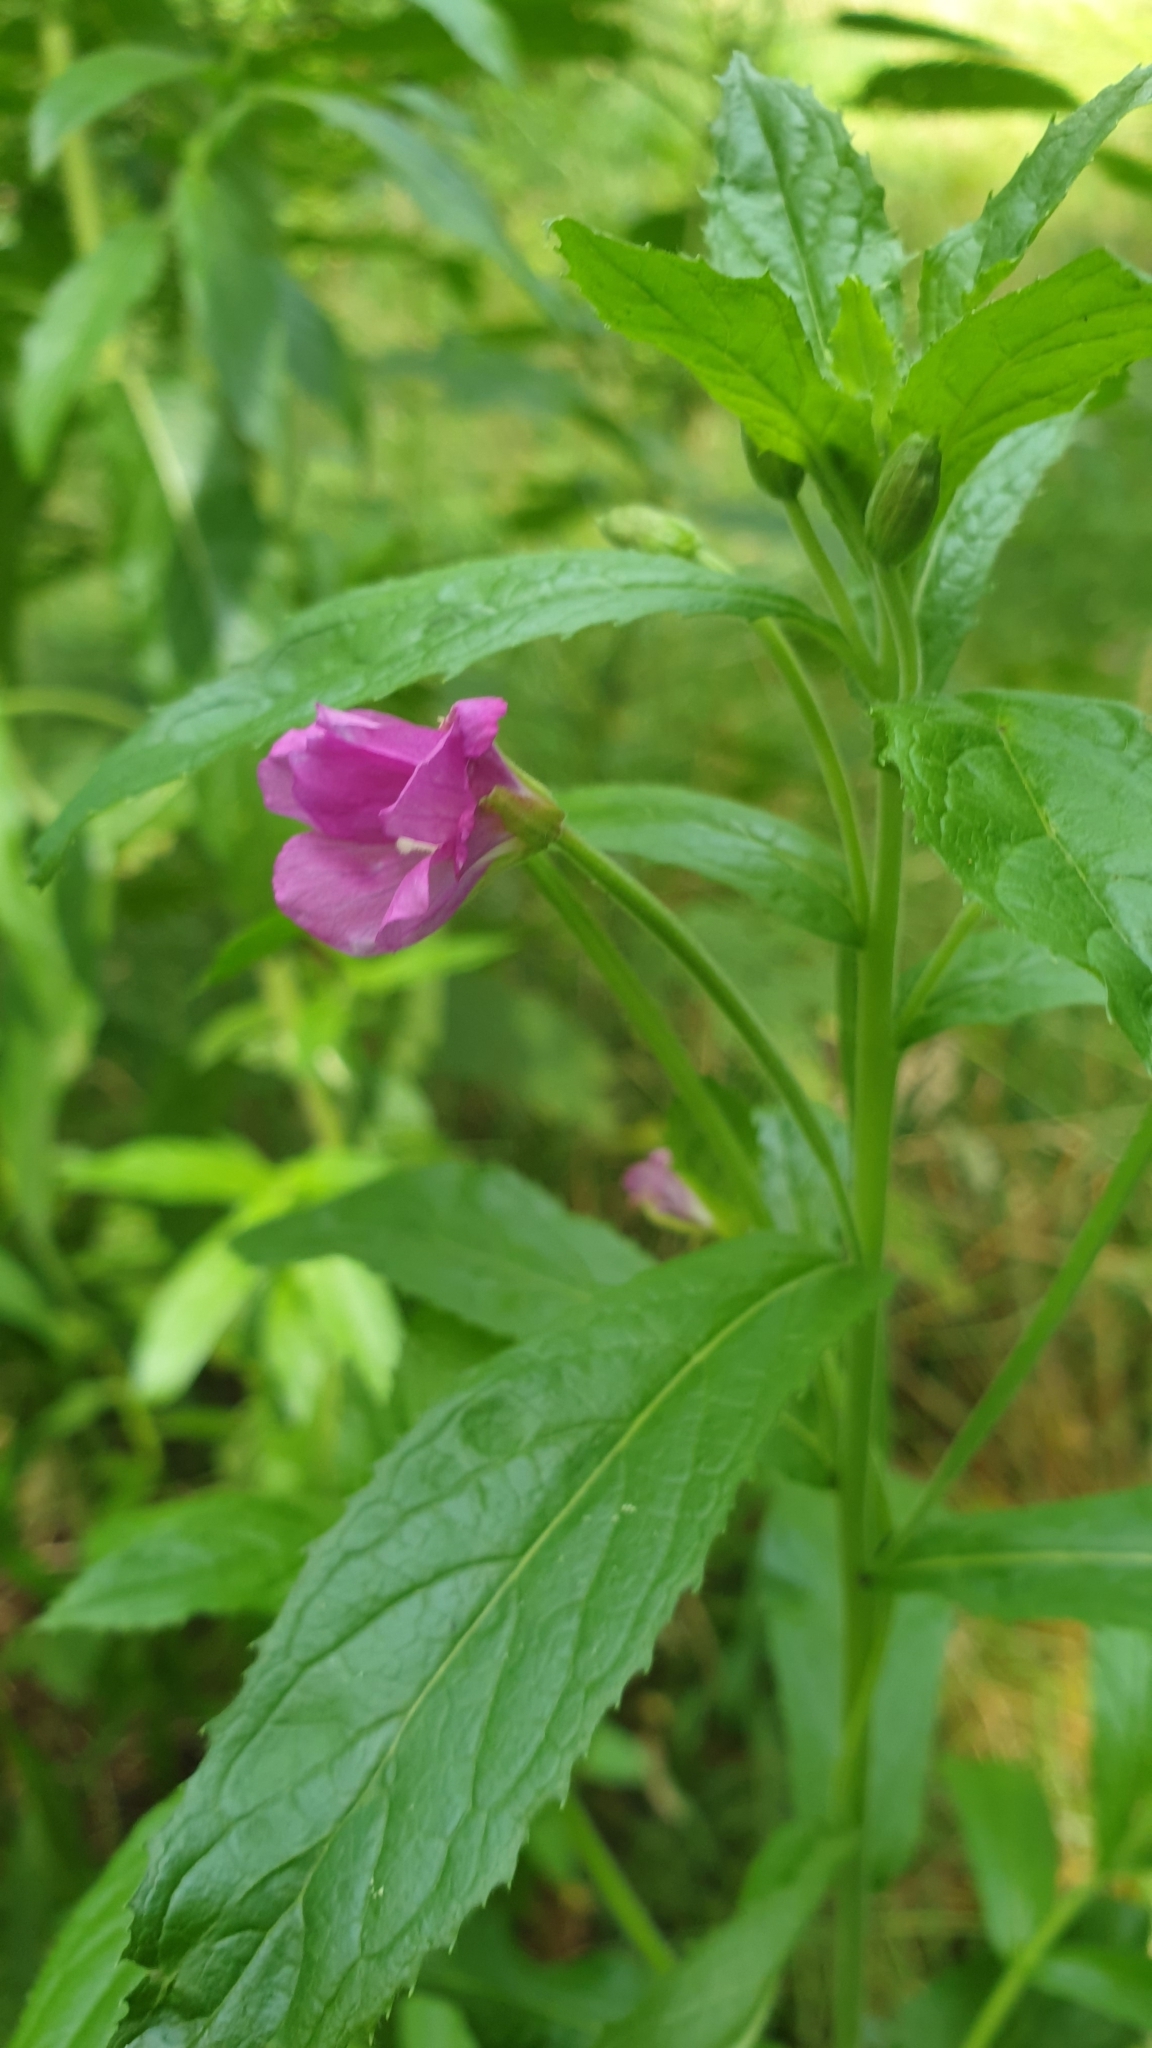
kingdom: Plantae
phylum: Tracheophyta
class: Magnoliopsida
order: Myrtales
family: Onagraceae
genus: Epilobium
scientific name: Epilobium hirsutum
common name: Great willowherb
